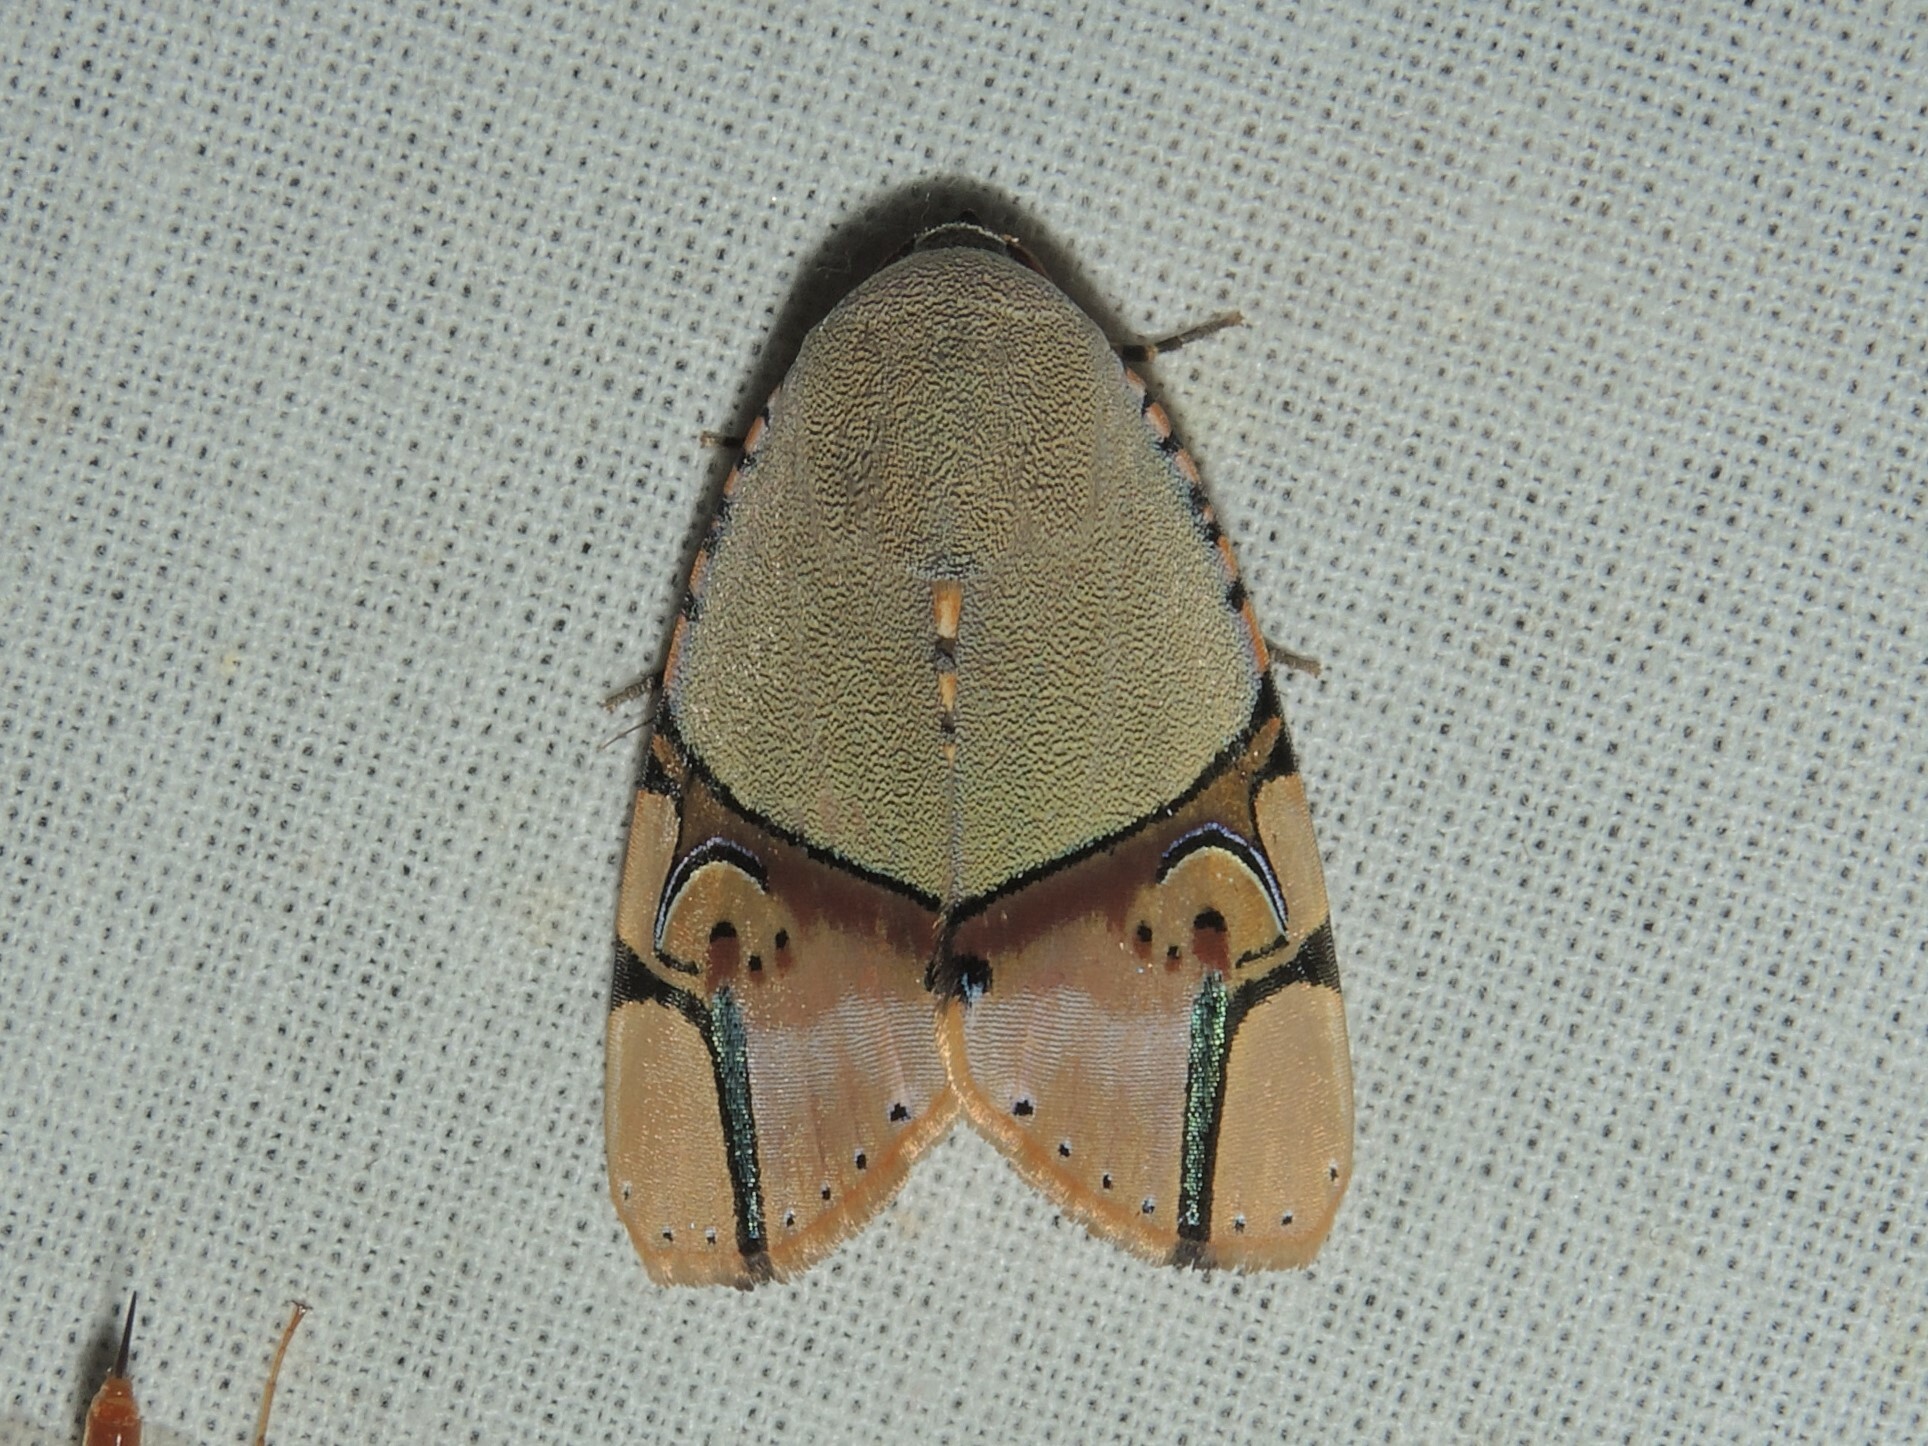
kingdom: Animalia
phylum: Arthropoda
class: Insecta
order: Lepidoptera
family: Erebidae
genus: Ramadasa
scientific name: Ramadasa pavo
